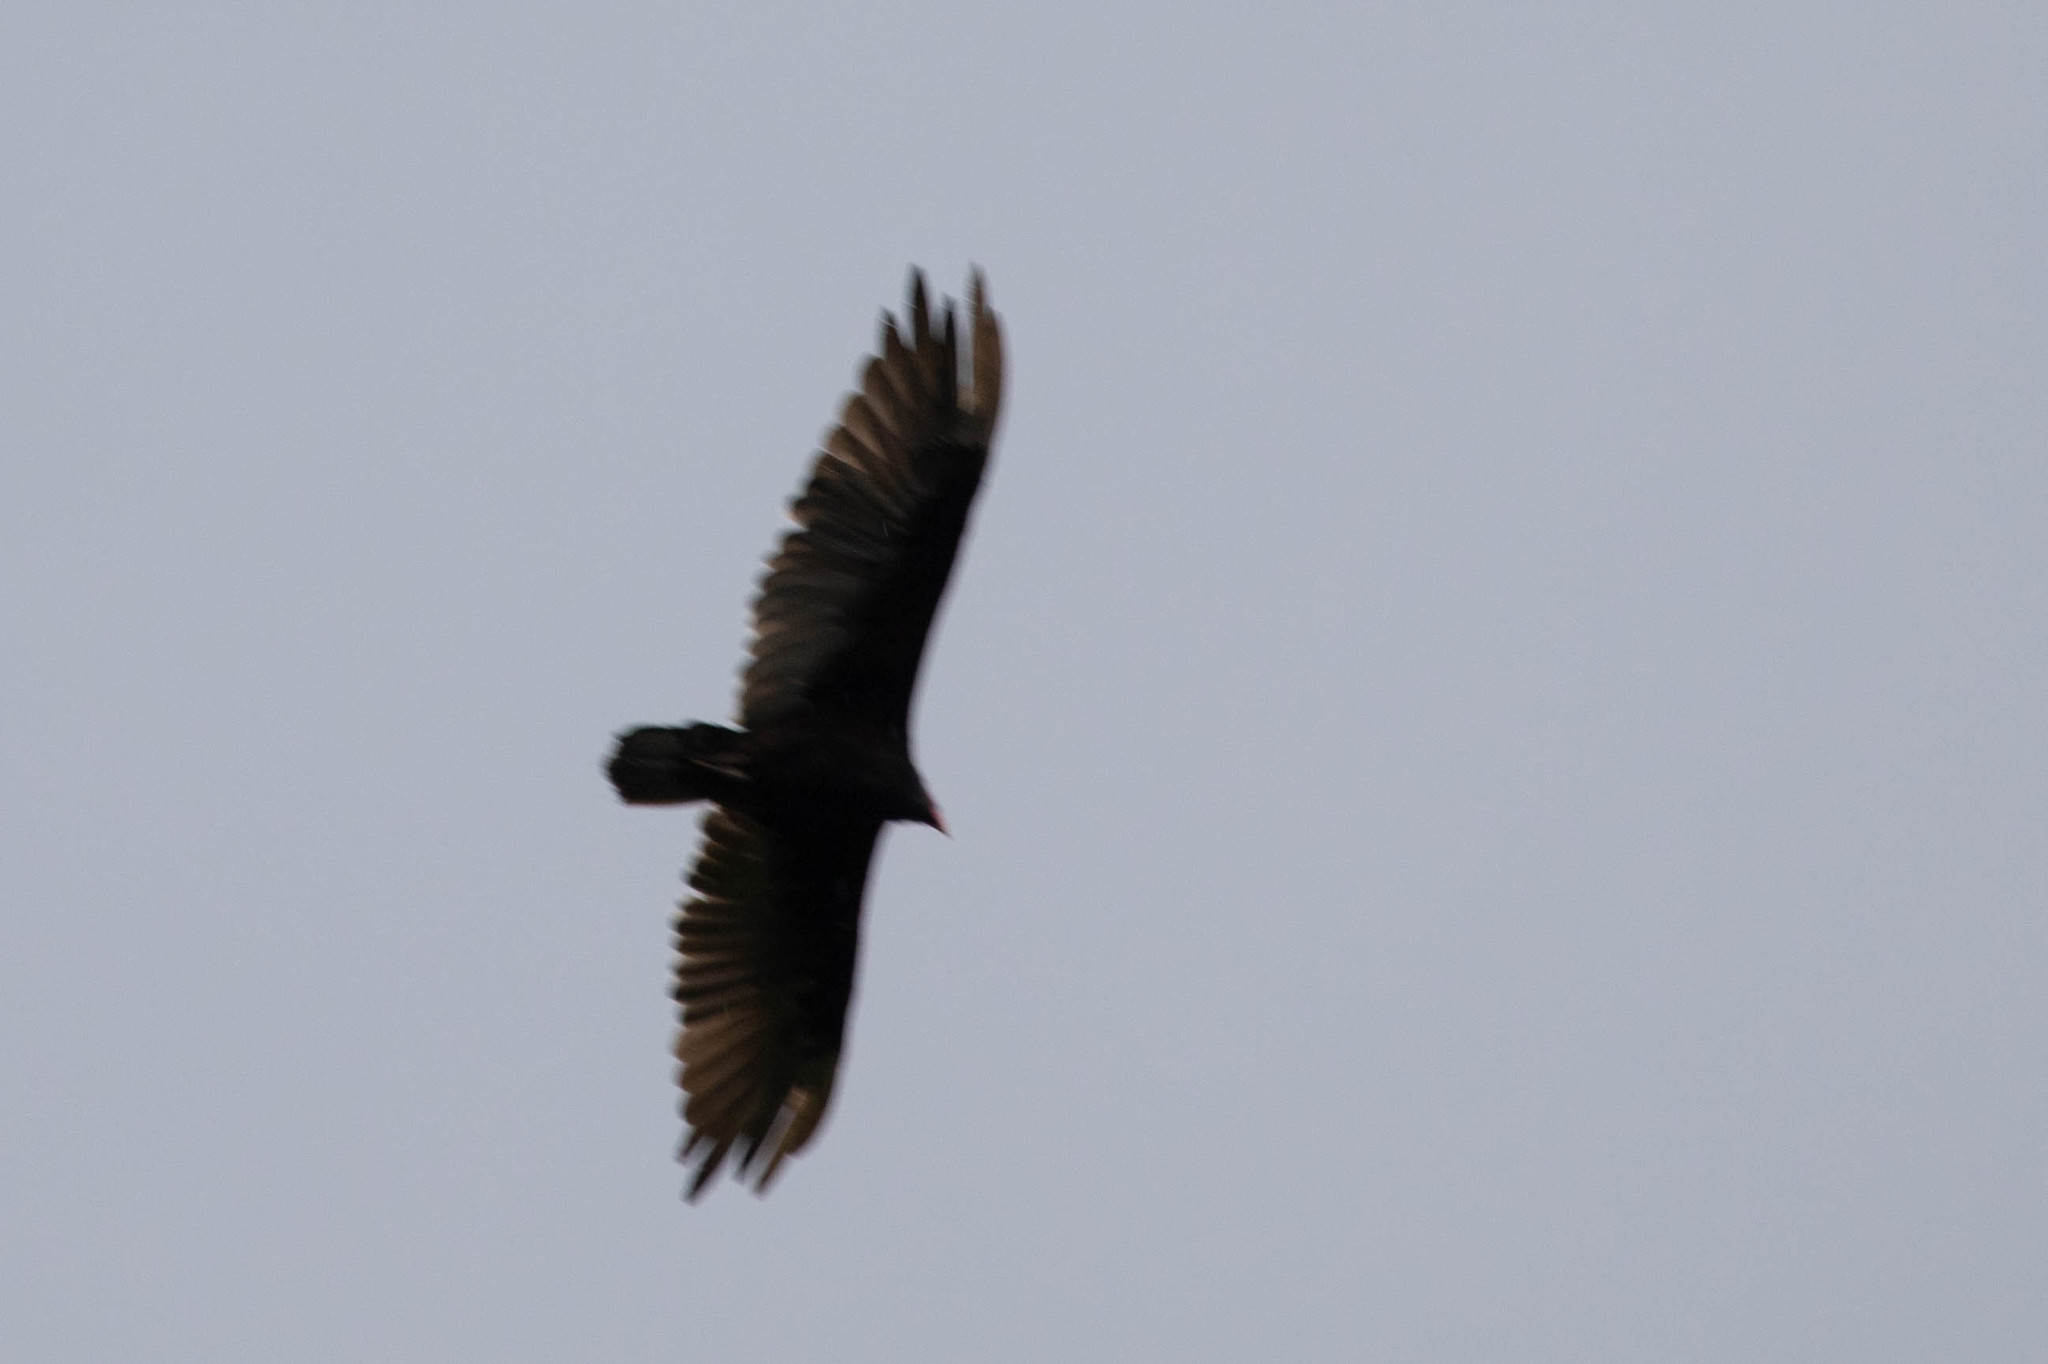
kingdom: Animalia
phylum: Chordata
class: Aves
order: Accipitriformes
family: Cathartidae
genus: Cathartes
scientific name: Cathartes aura
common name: Turkey vulture
